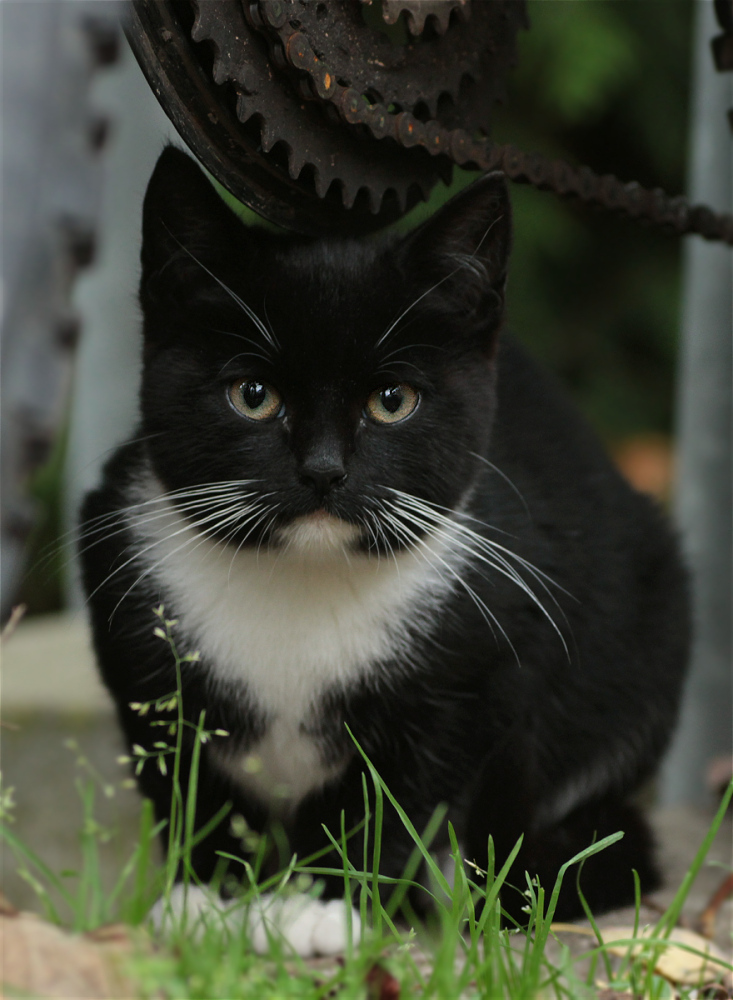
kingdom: Animalia
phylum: Chordata
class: Mammalia
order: Carnivora
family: Felidae
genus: Felis
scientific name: Felis catus
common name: Domestic cat
